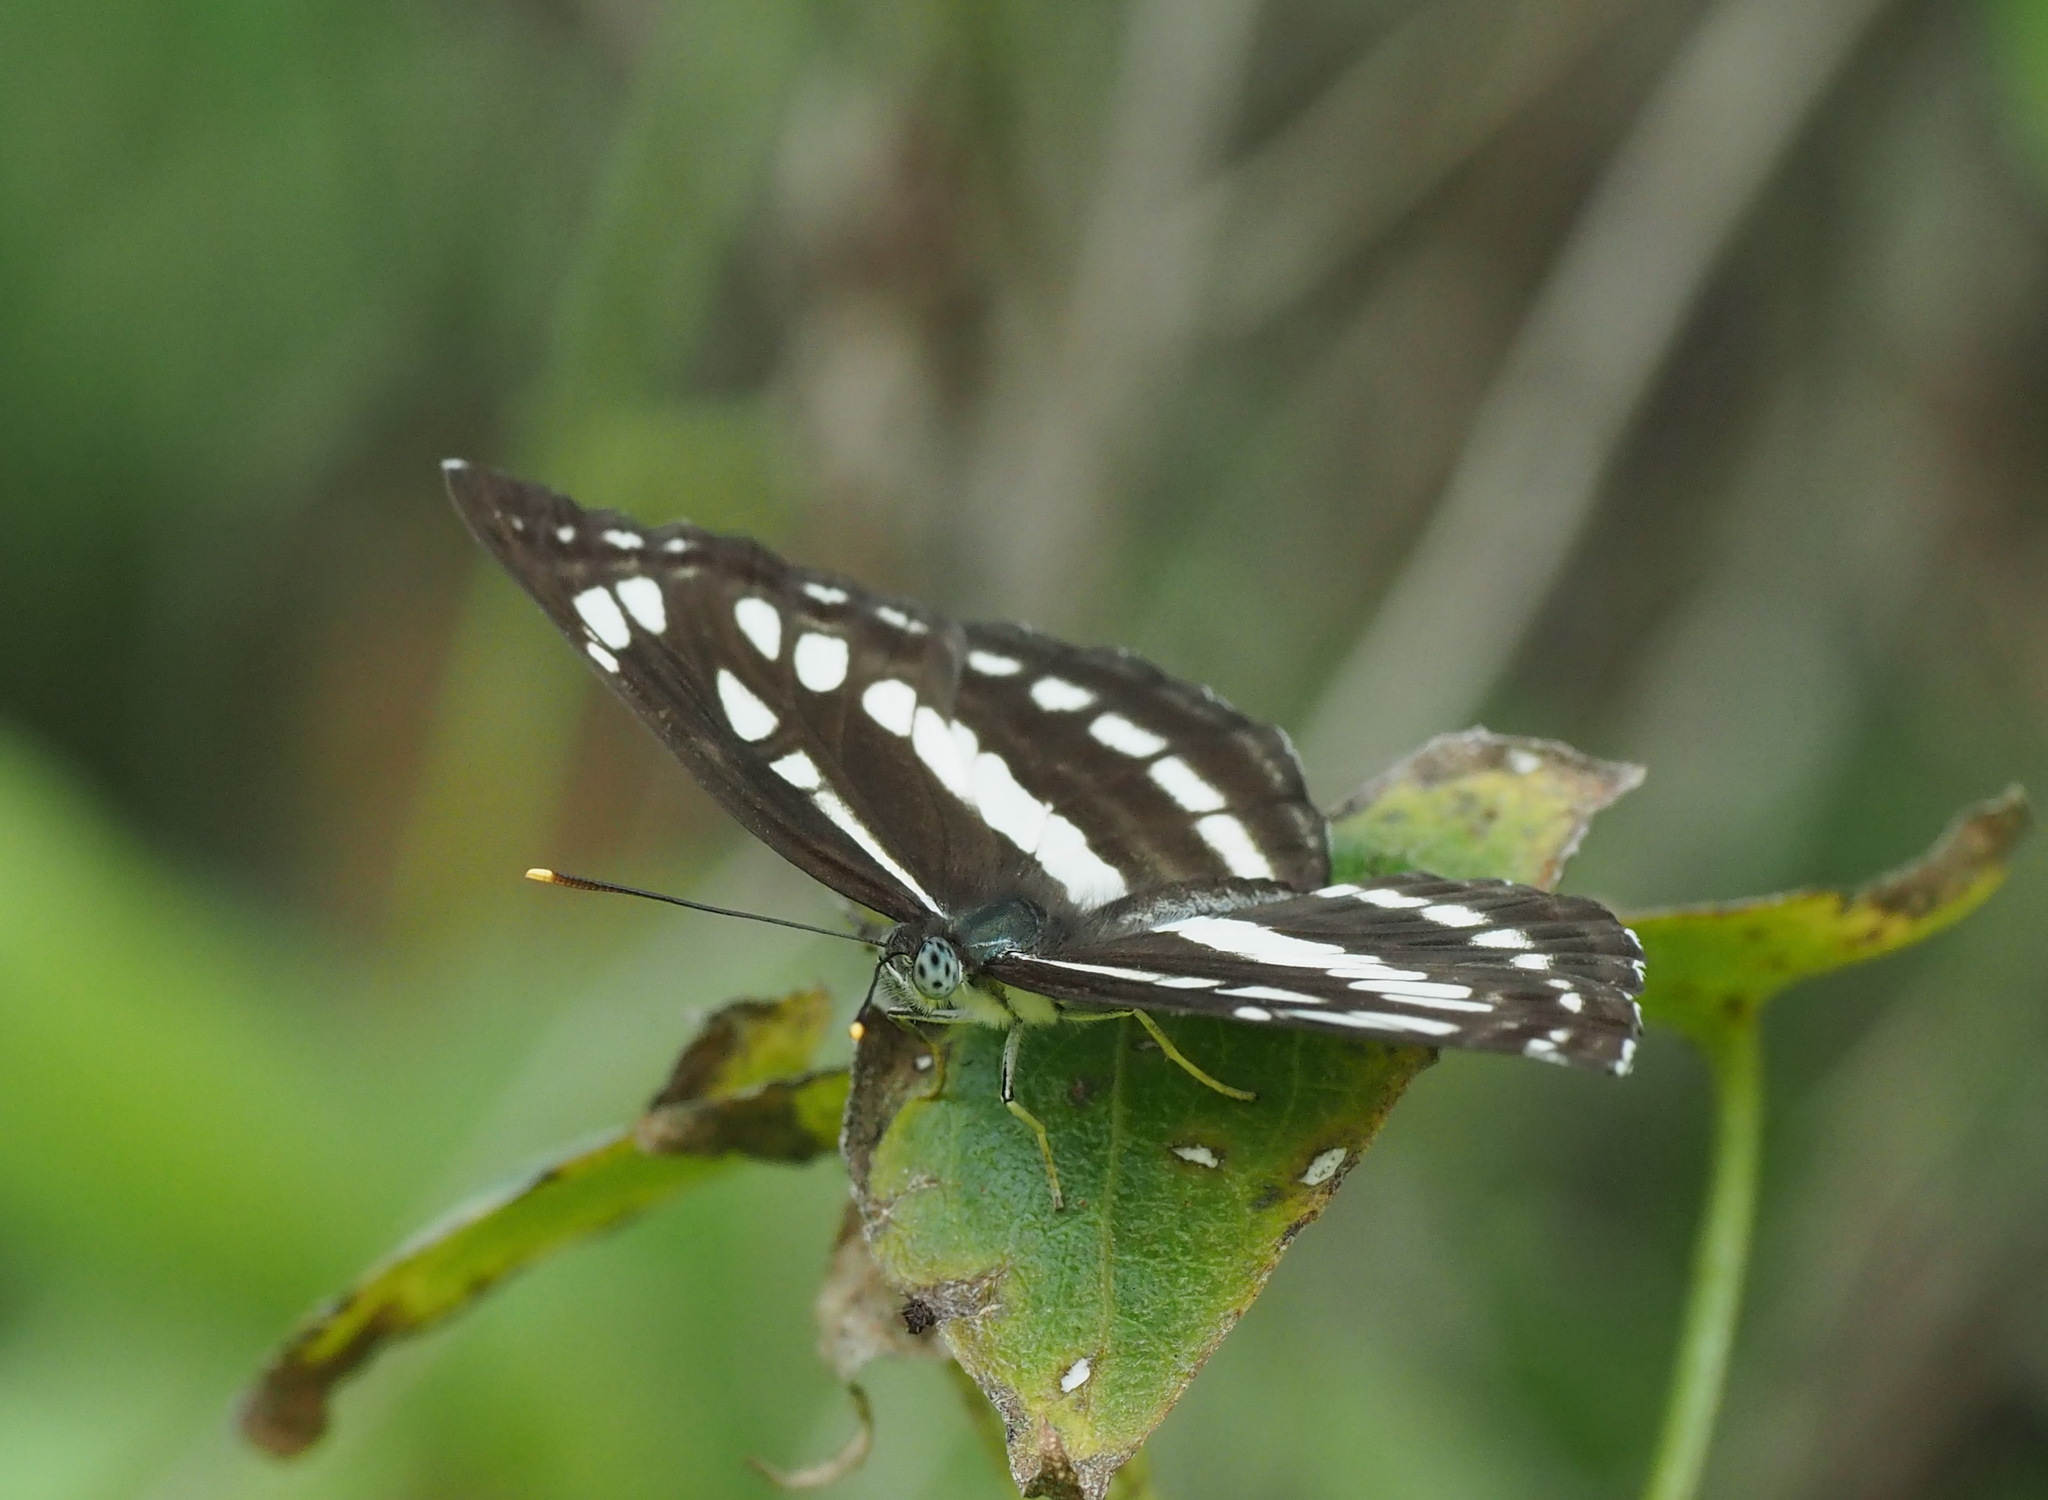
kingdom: Animalia
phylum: Arthropoda
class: Insecta
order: Lepidoptera
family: Nymphalidae
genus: Neptis
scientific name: Neptis hylas
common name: Common sailer
